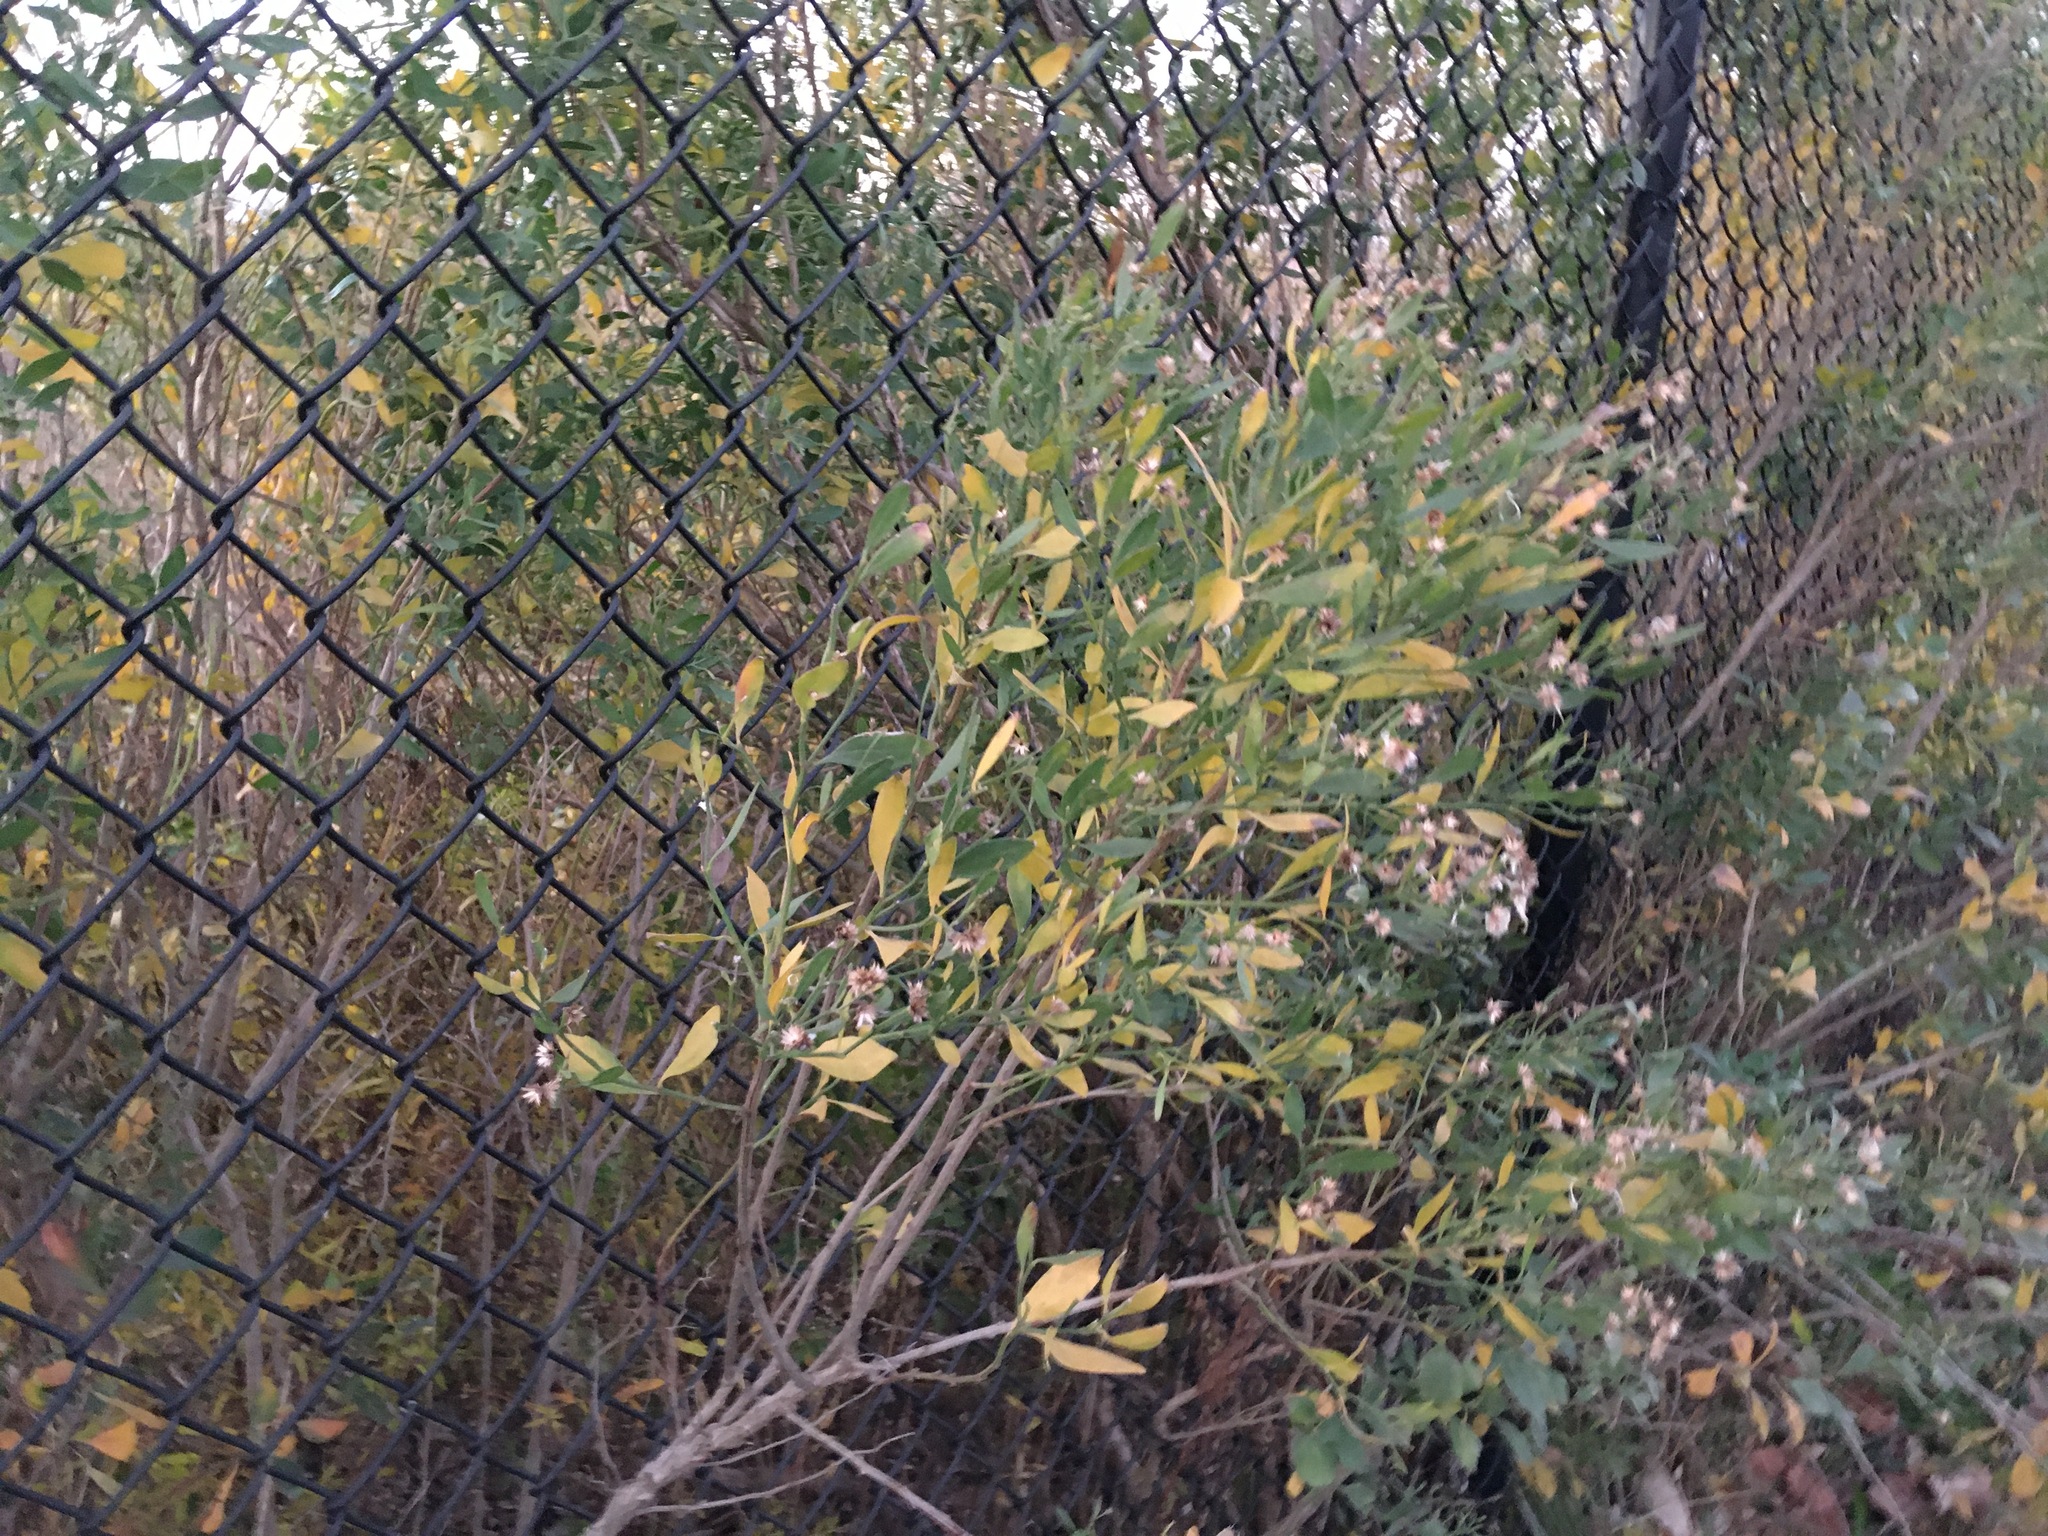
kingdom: Plantae
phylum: Tracheophyta
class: Magnoliopsida
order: Asterales
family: Asteraceae
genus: Baccharis
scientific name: Baccharis halimifolia
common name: Eastern baccharis
